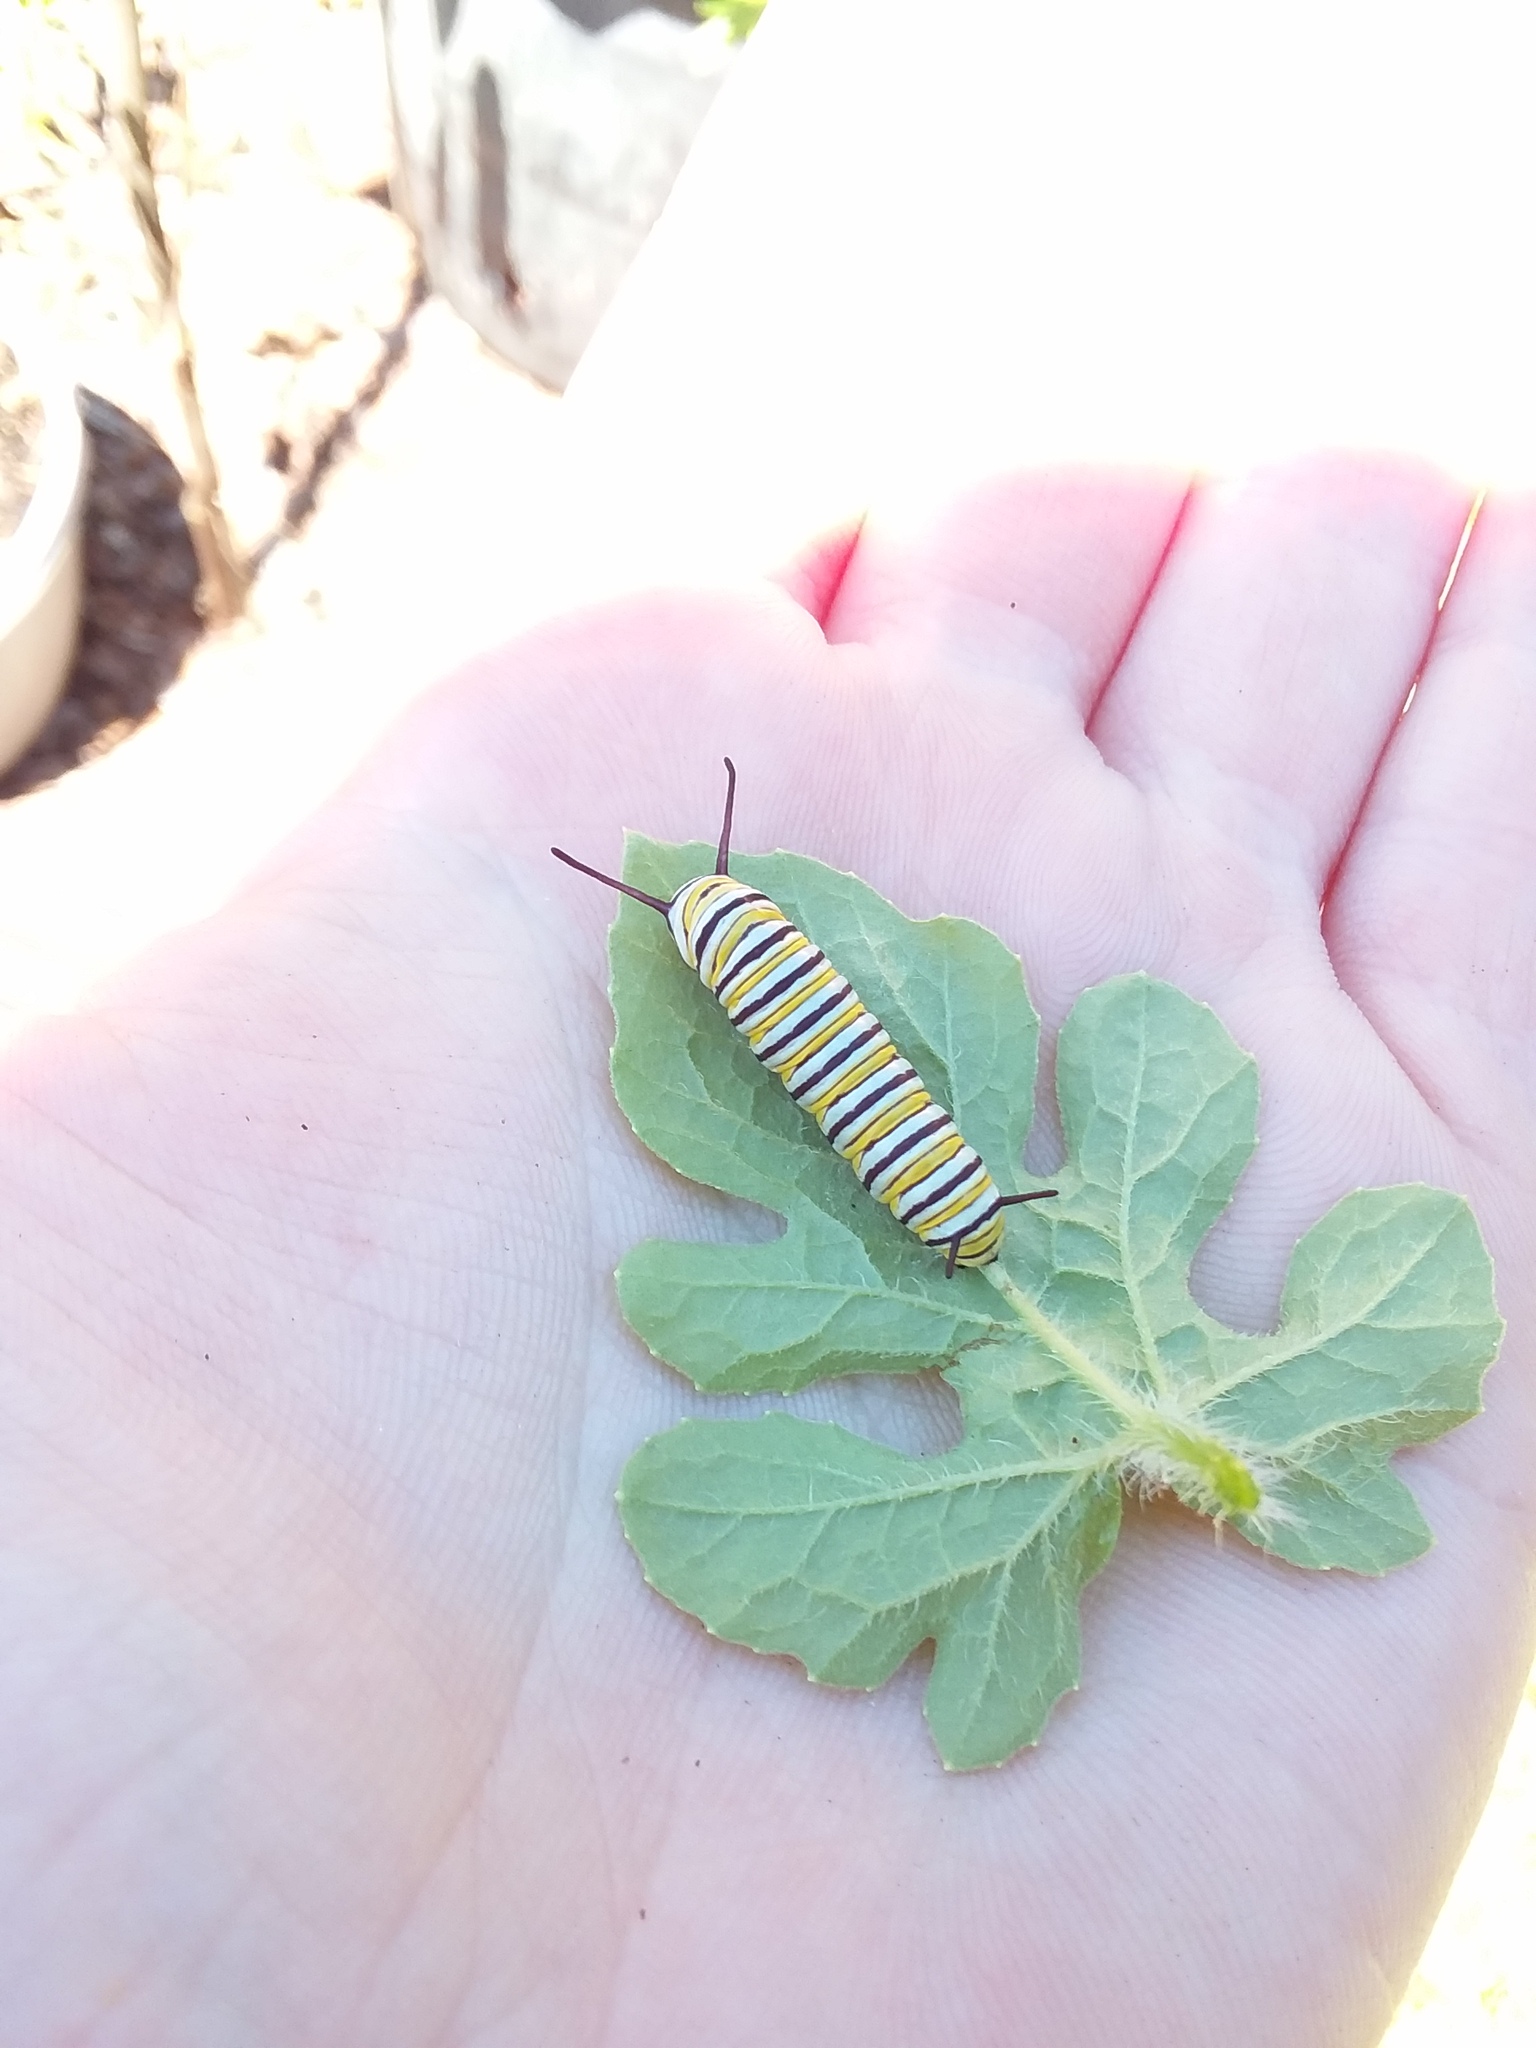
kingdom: Animalia
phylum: Arthropoda
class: Insecta
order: Lepidoptera
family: Nymphalidae
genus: Danaus
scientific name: Danaus plexippus
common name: Monarch
